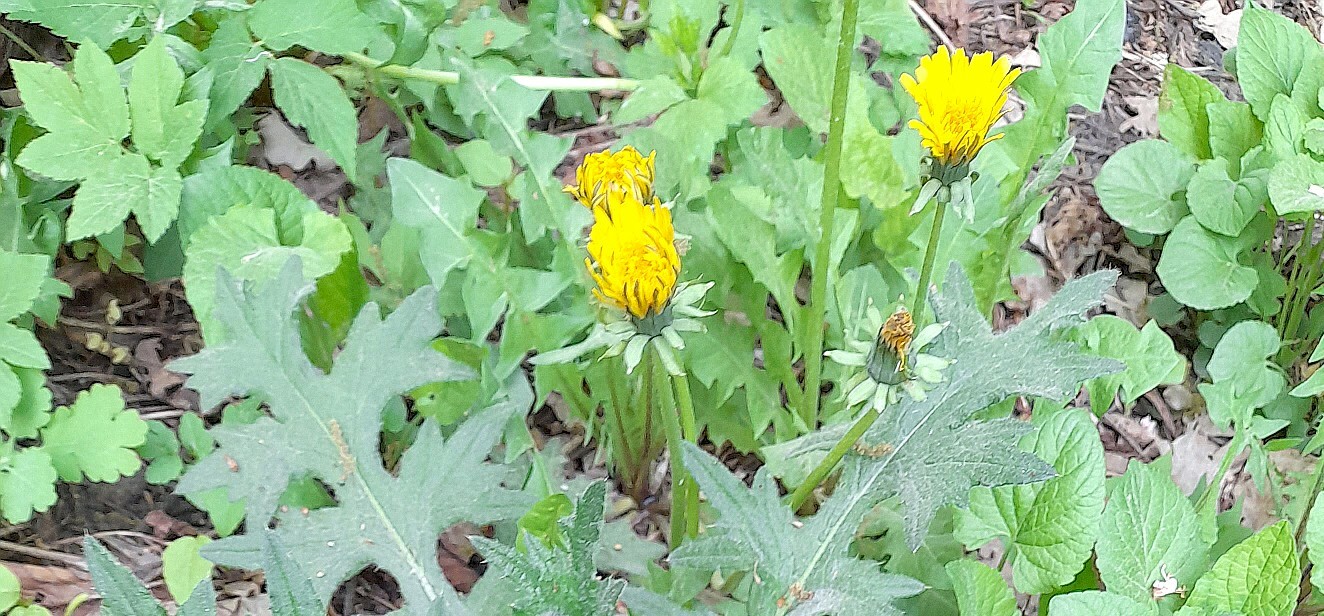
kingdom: Plantae
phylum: Tracheophyta
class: Magnoliopsida
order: Asterales
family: Asteraceae
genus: Taraxacum
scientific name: Taraxacum officinale
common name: Common dandelion
